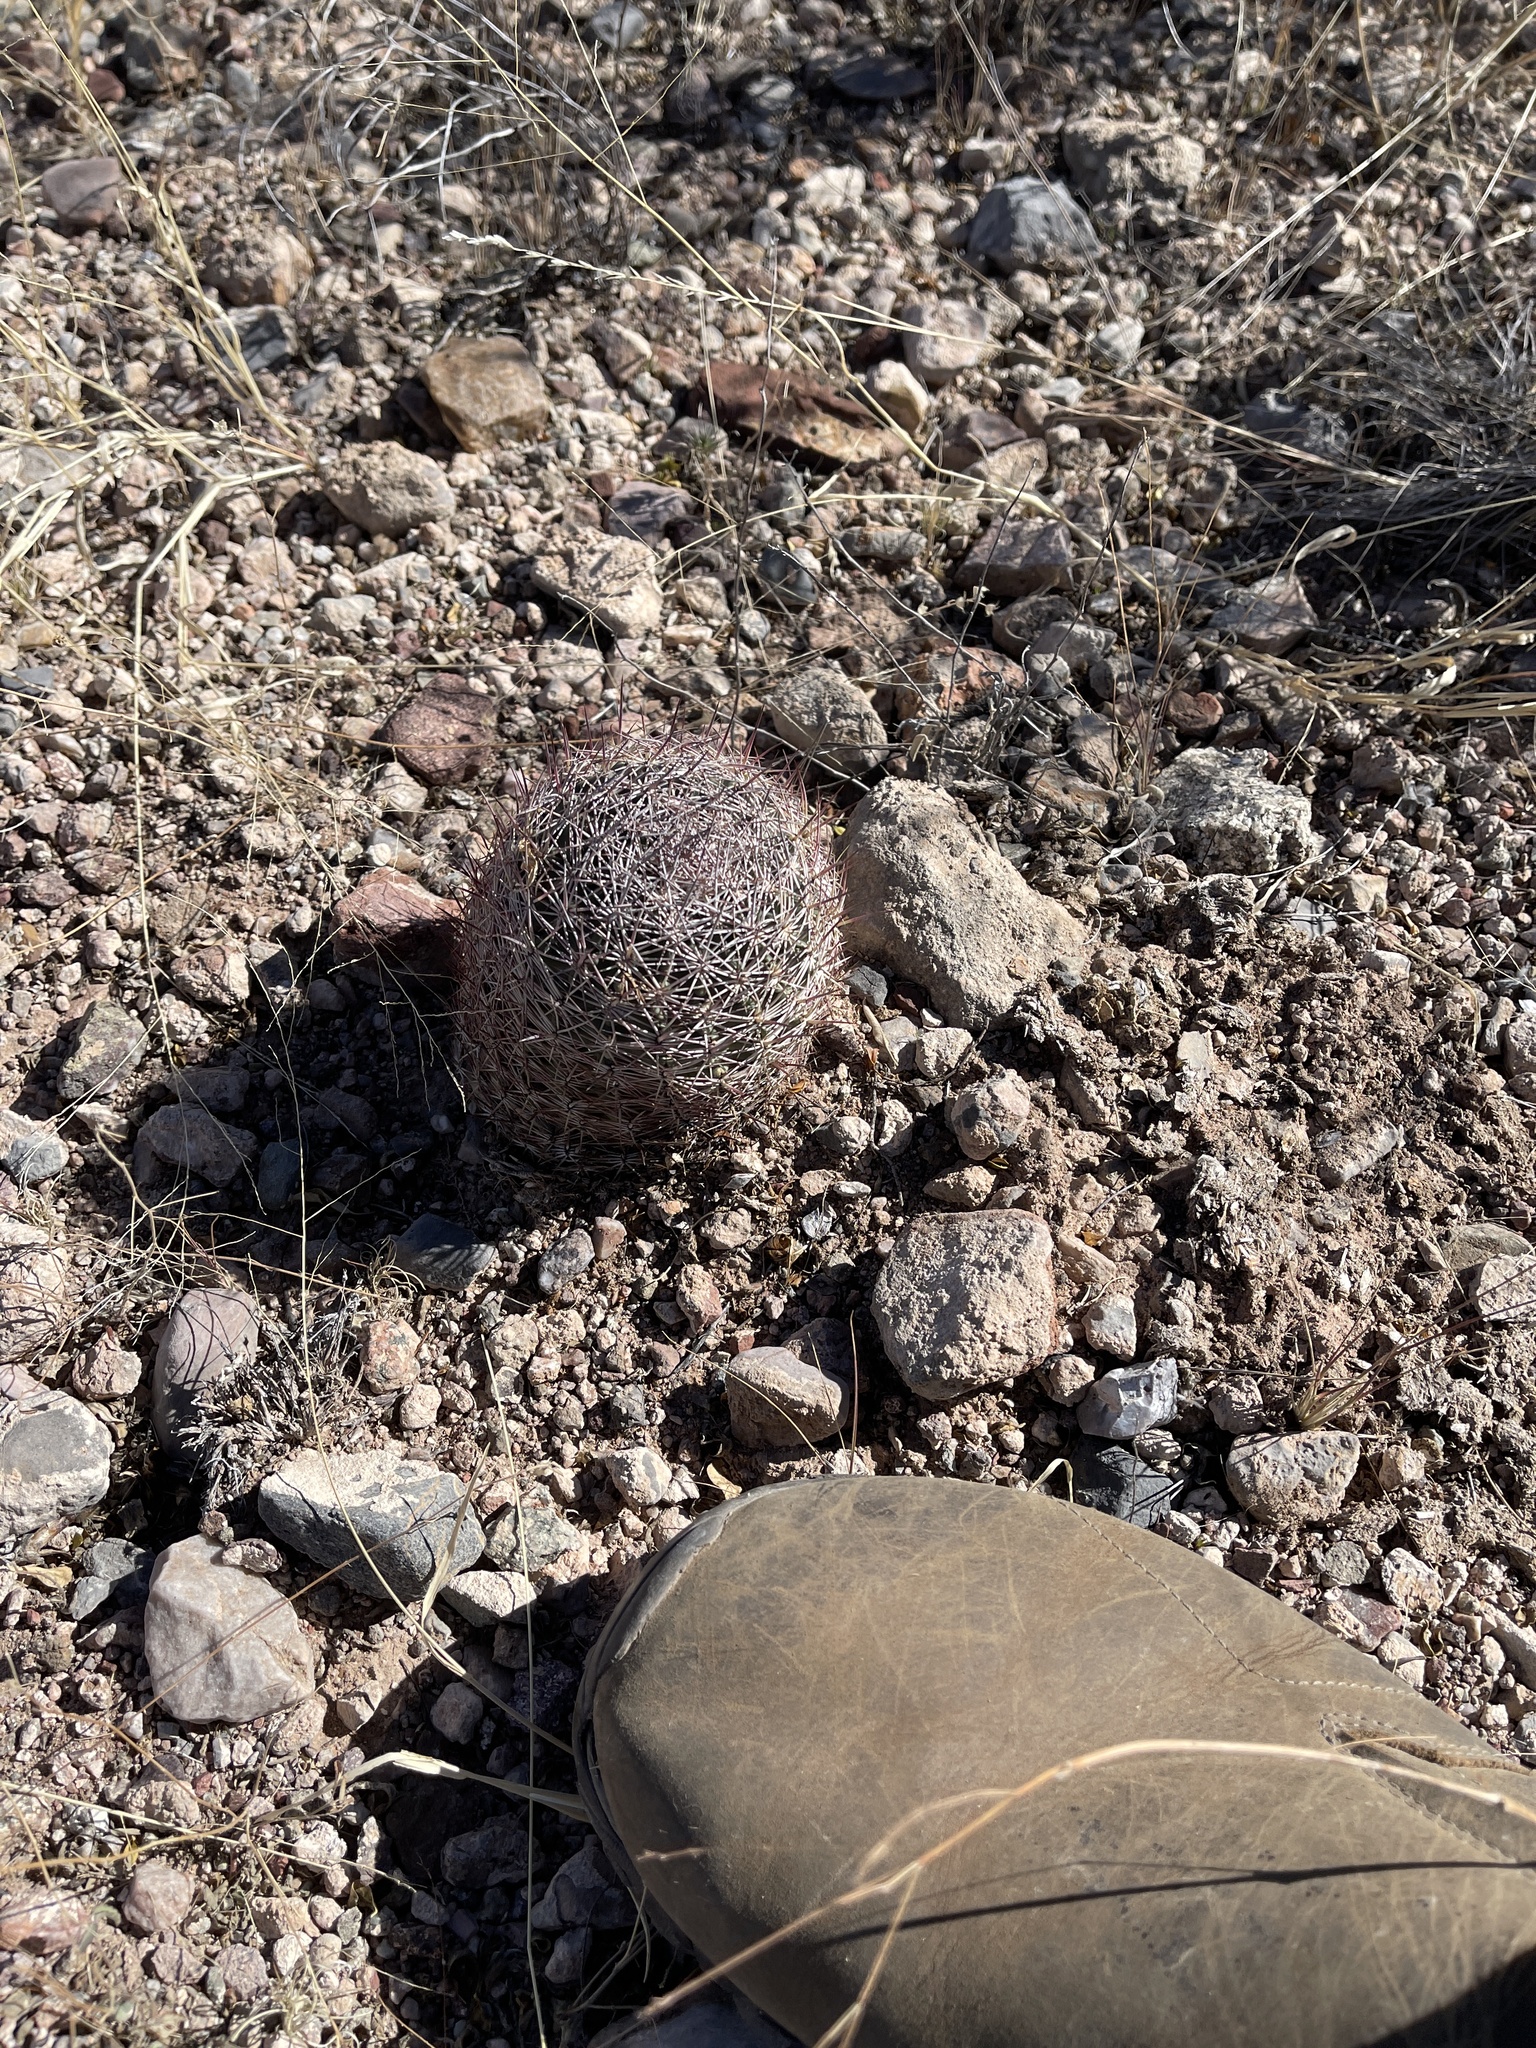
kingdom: Plantae
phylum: Tracheophyta
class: Magnoliopsida
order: Caryophyllales
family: Cactaceae
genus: Sclerocactus
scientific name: Sclerocactus johnsonii
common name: Eight-spine fishhook cactus
